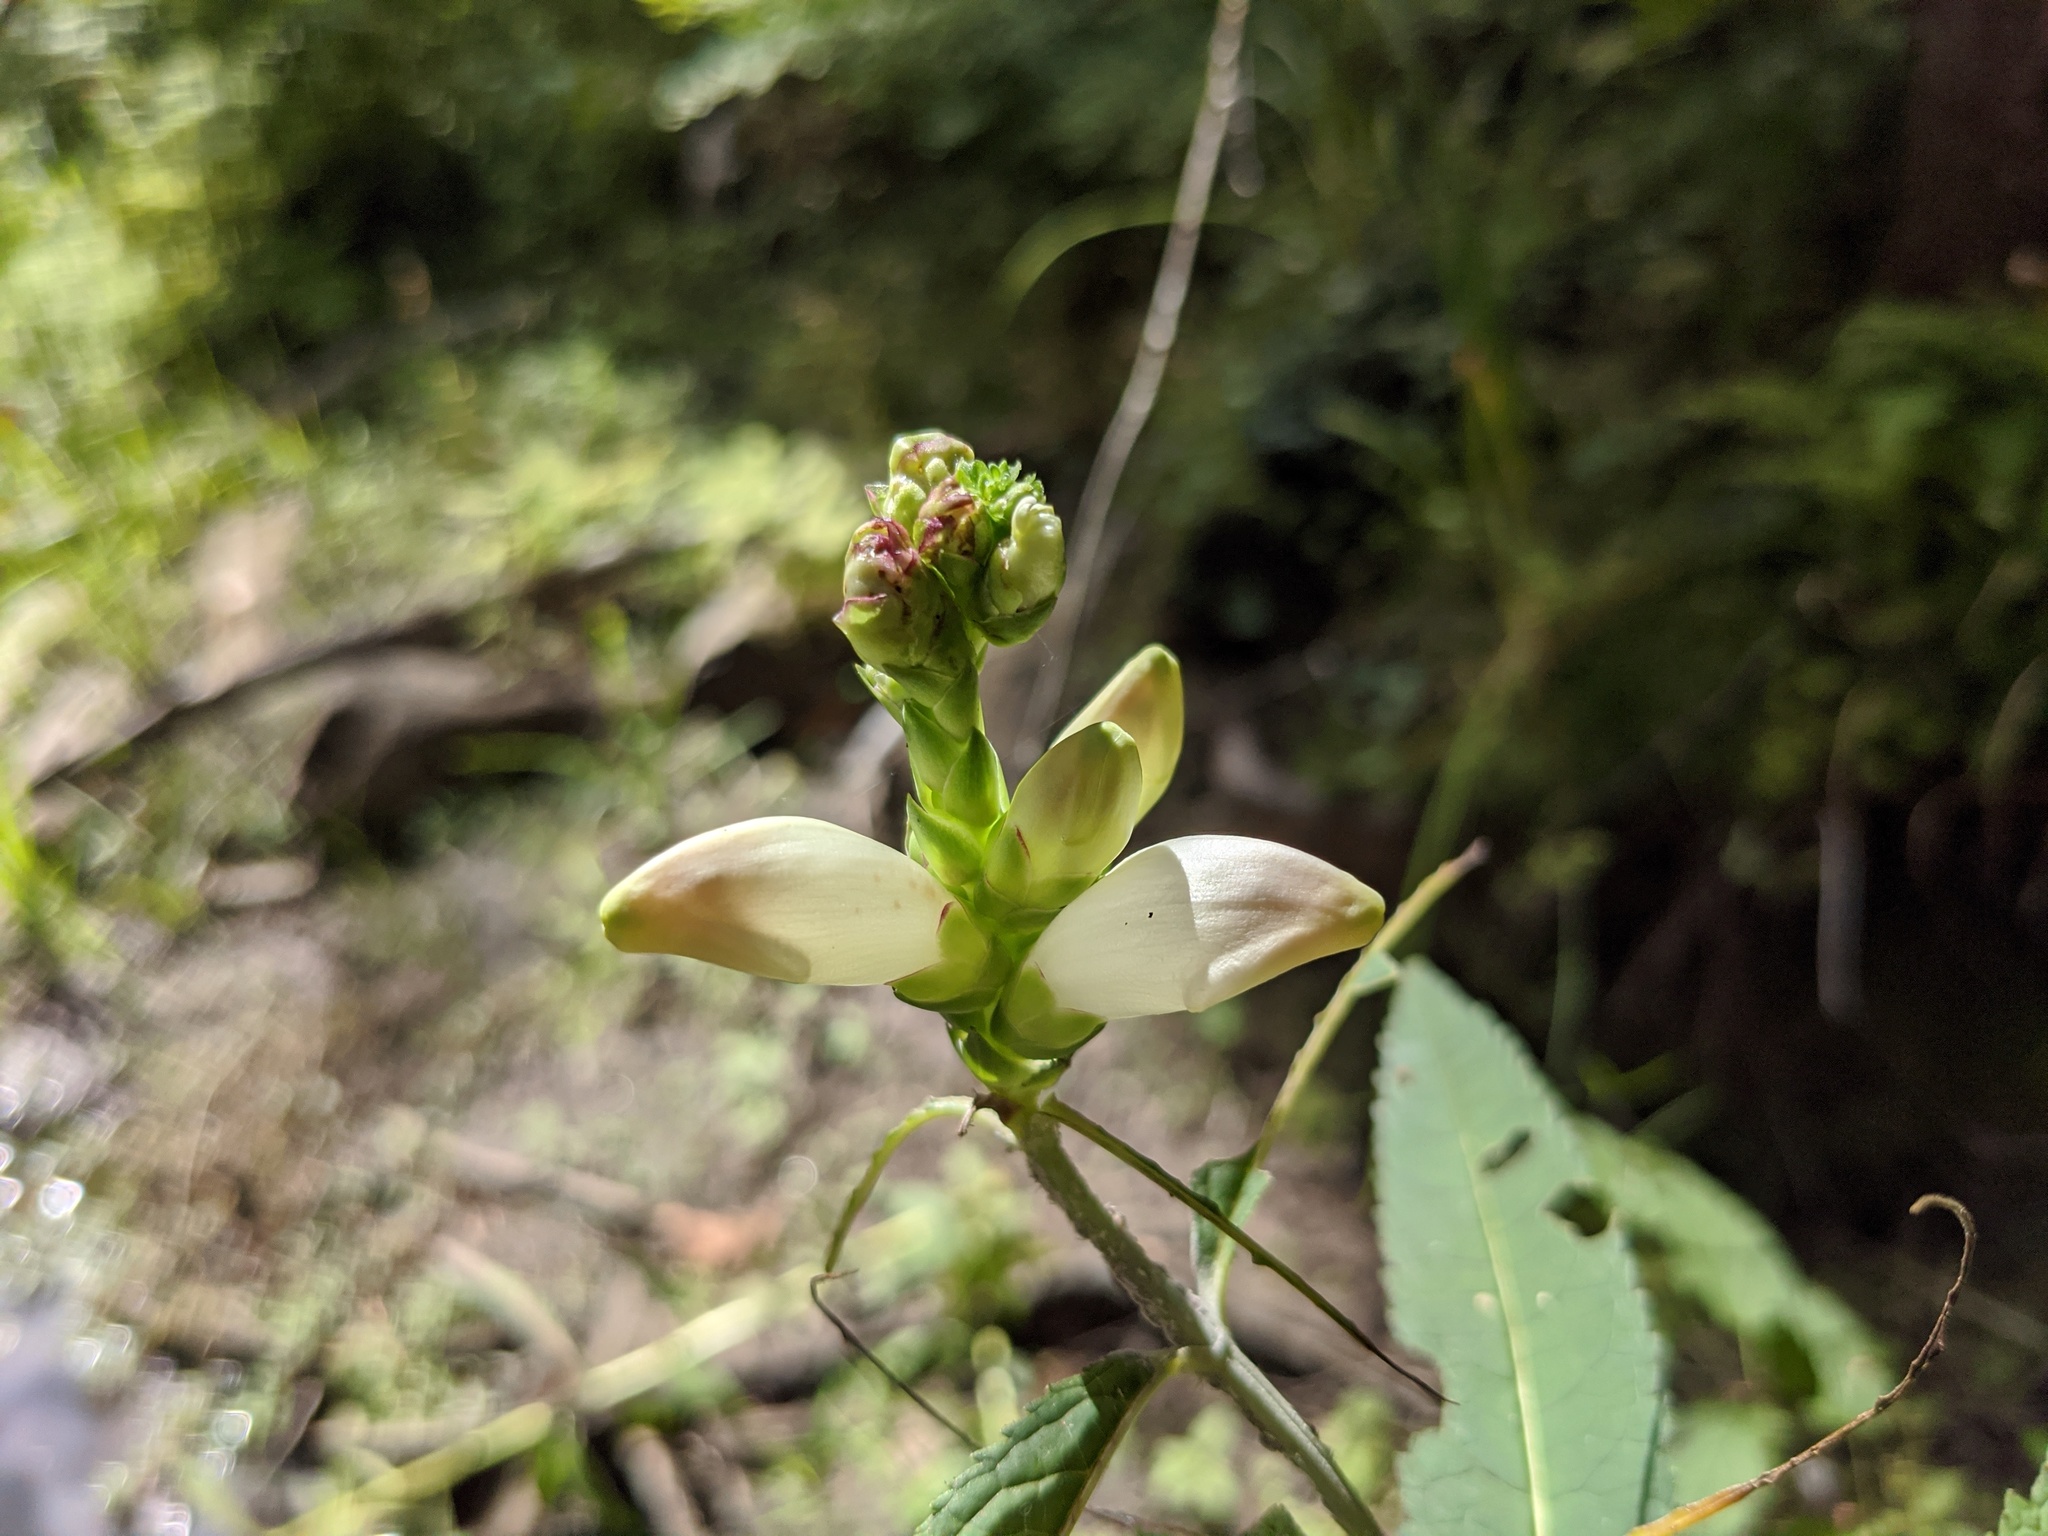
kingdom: Plantae
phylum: Tracheophyta
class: Magnoliopsida
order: Lamiales
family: Plantaginaceae
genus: Chelone
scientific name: Chelone glabra
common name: Snakehead
